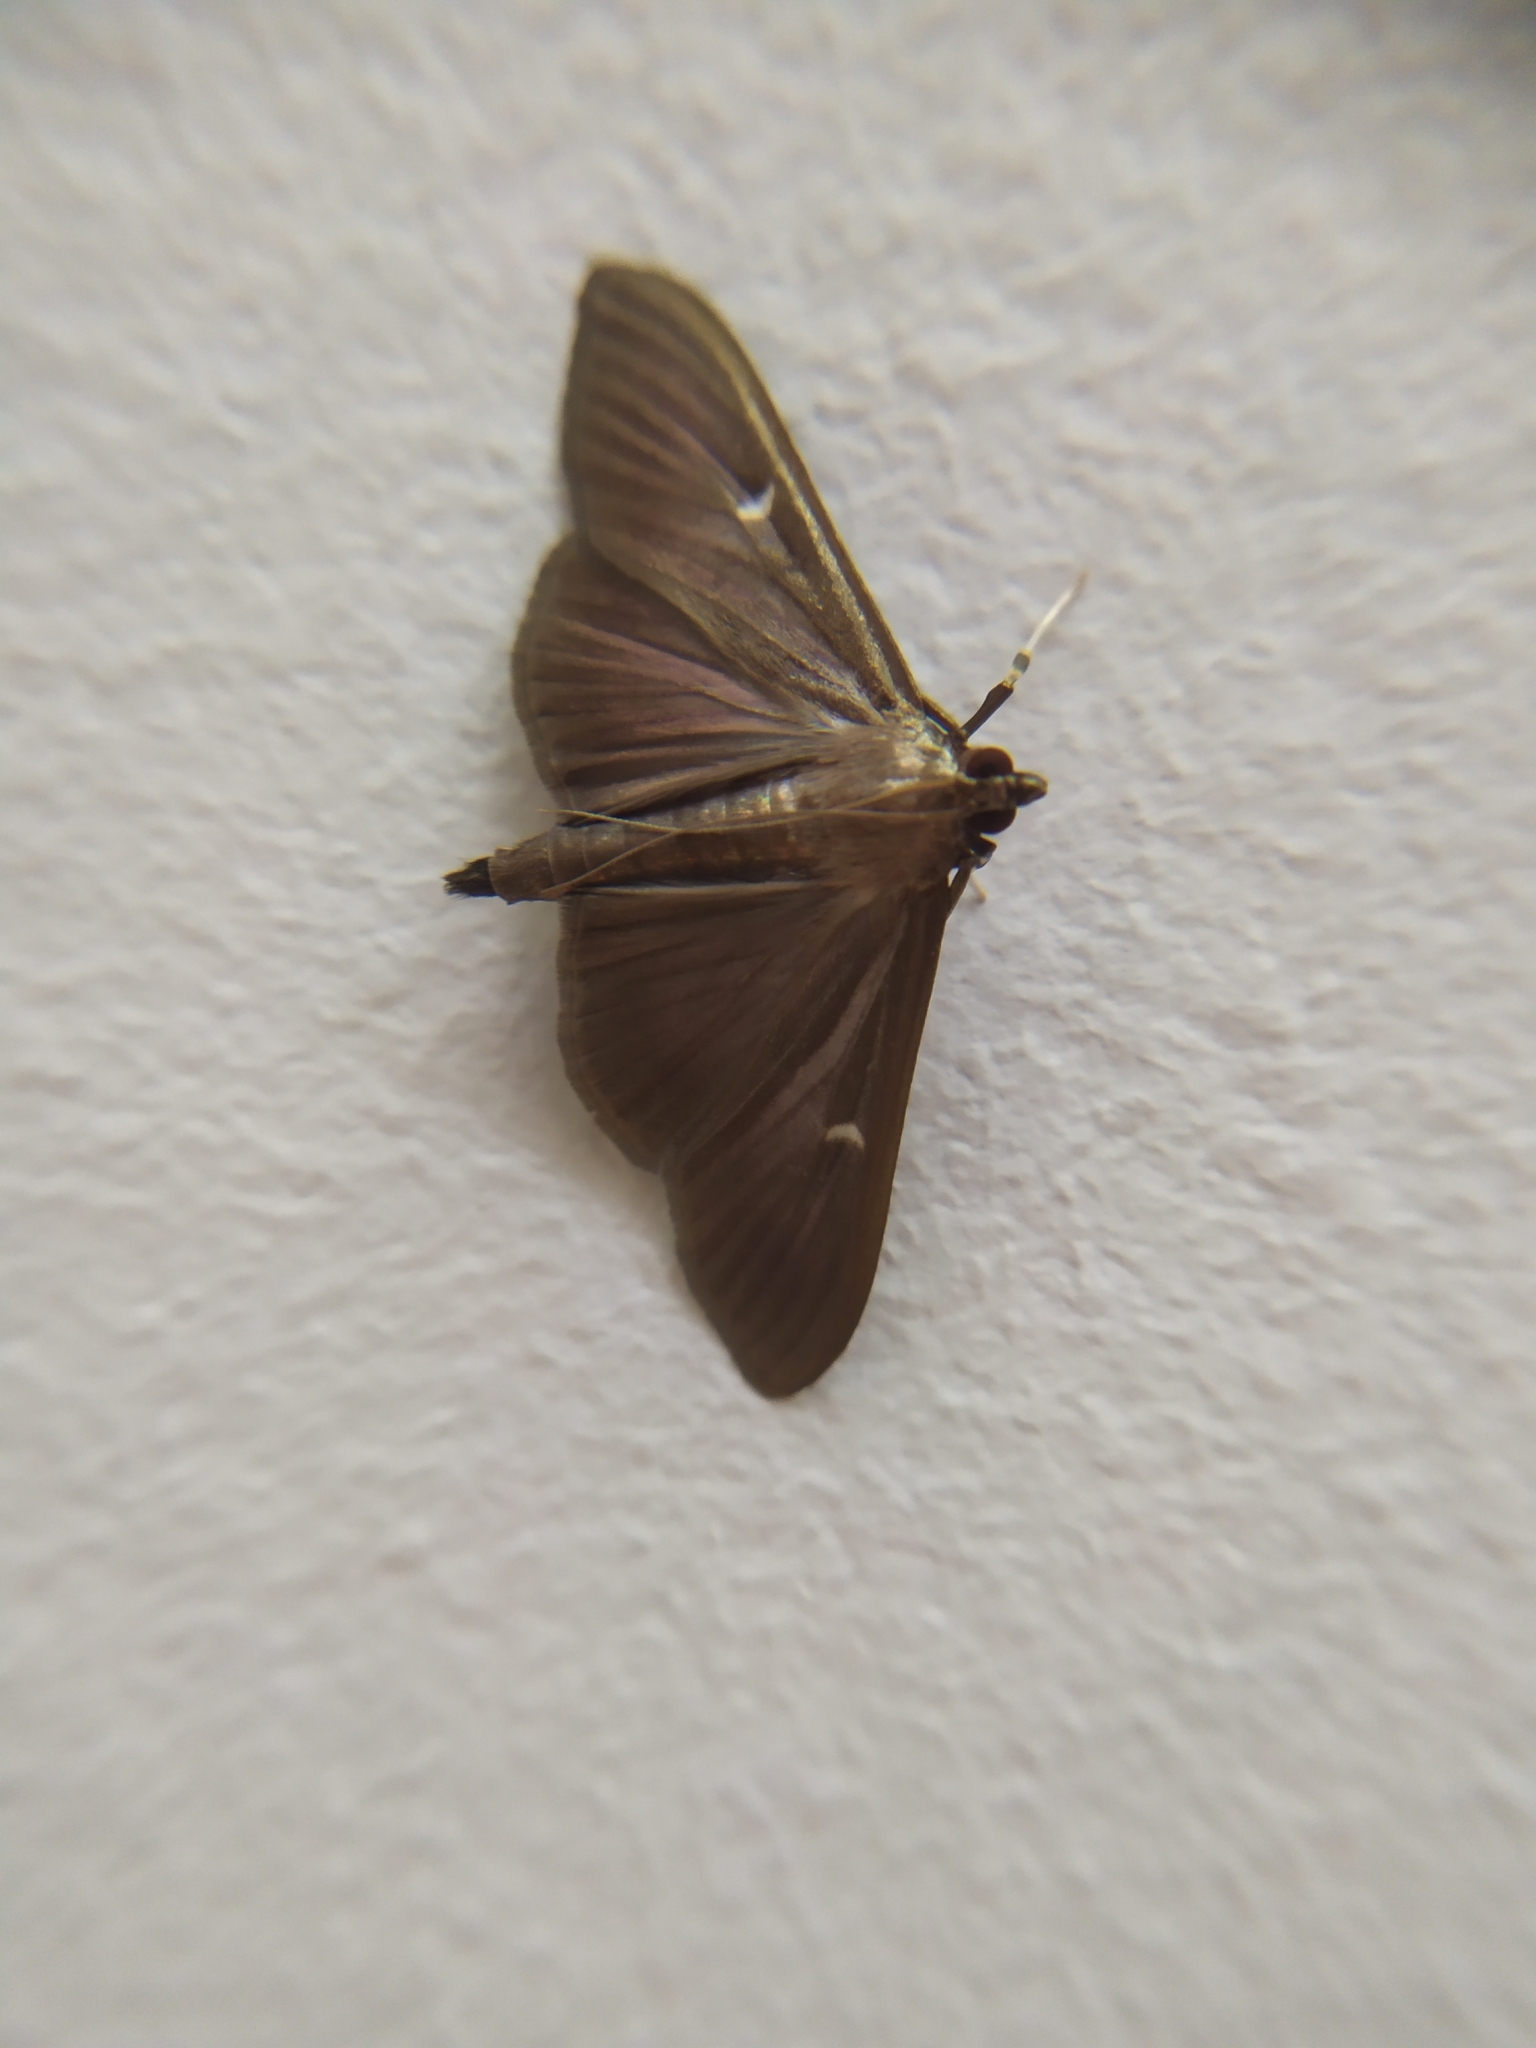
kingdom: Animalia
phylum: Arthropoda
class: Insecta
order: Lepidoptera
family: Crambidae
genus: Cydalima
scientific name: Cydalima perspectalis
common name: Box tree moth
